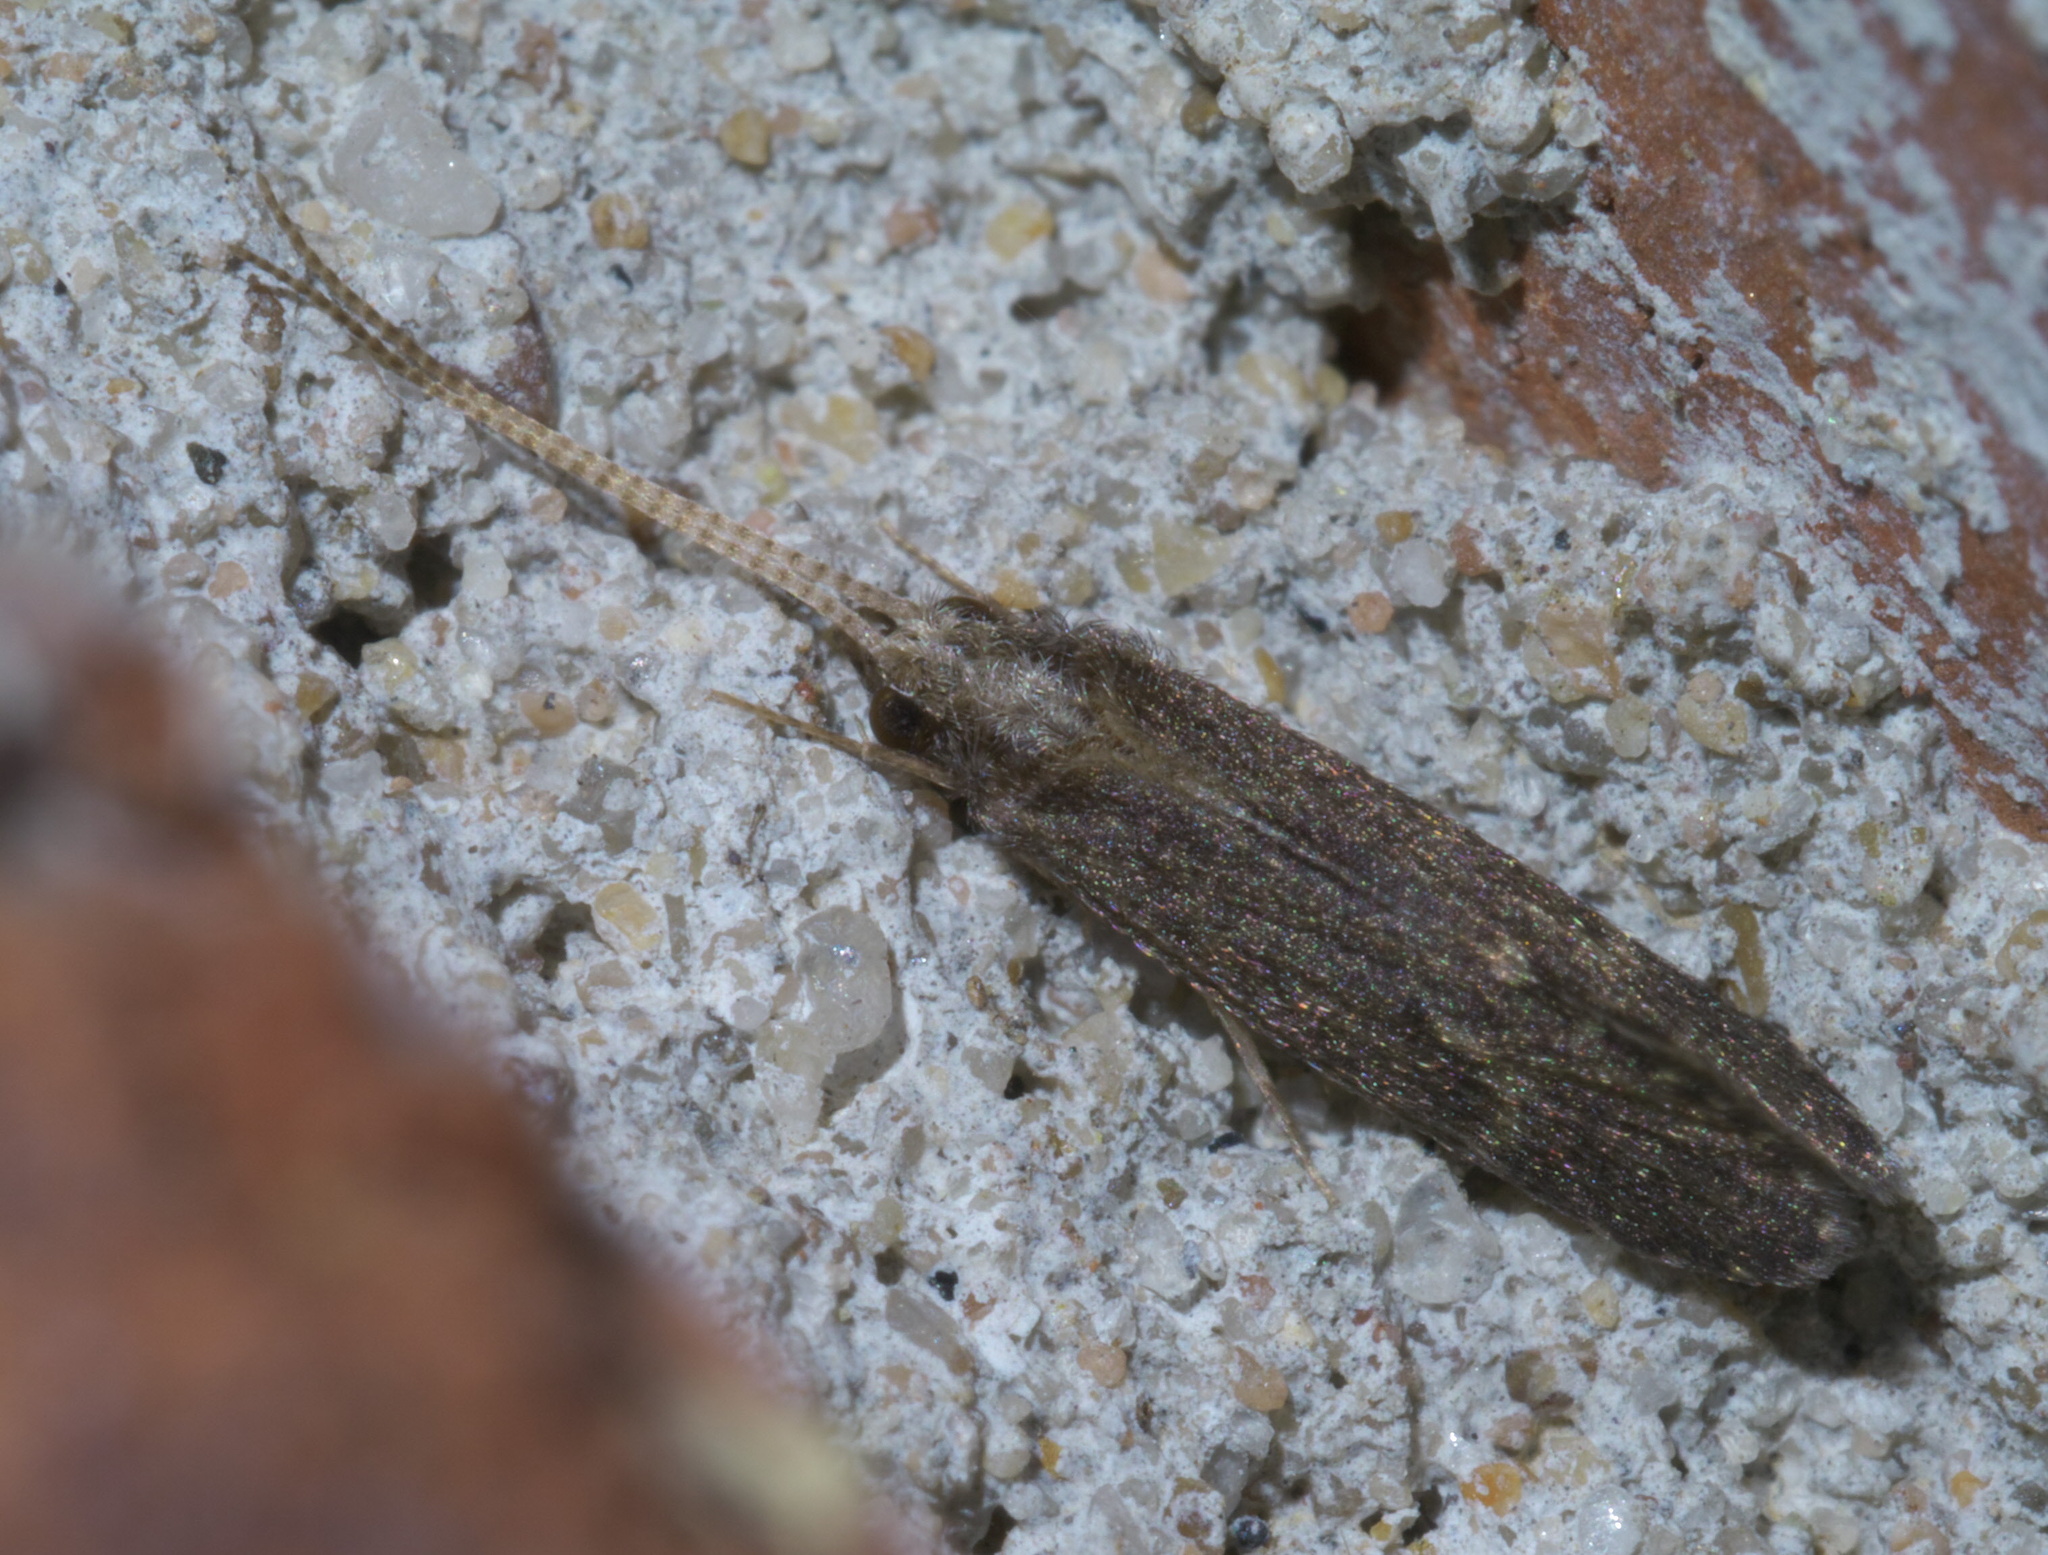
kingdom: Animalia
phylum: Arthropoda
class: Insecta
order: Trichoptera
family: Polycentropodidae
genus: Cyrnellus
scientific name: Cyrnellus fraternus
